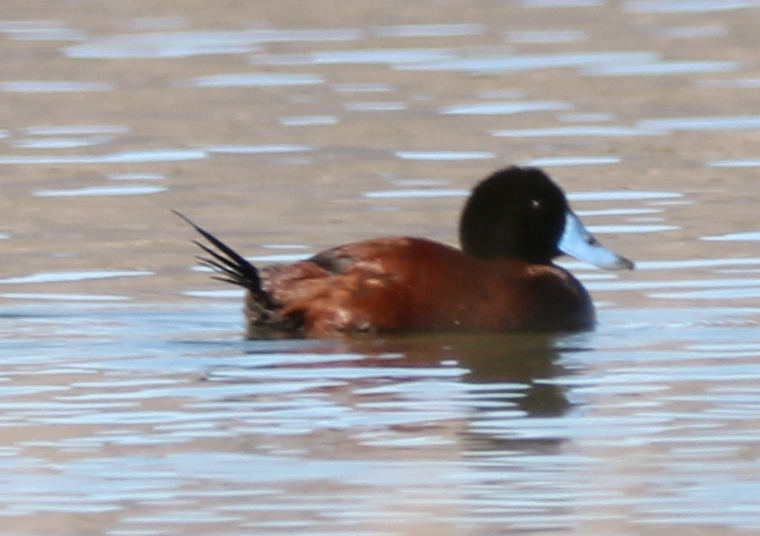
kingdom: Animalia
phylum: Chordata
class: Aves
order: Anseriformes
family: Anatidae
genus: Oxyura
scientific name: Oxyura vittata
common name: Lake duck
